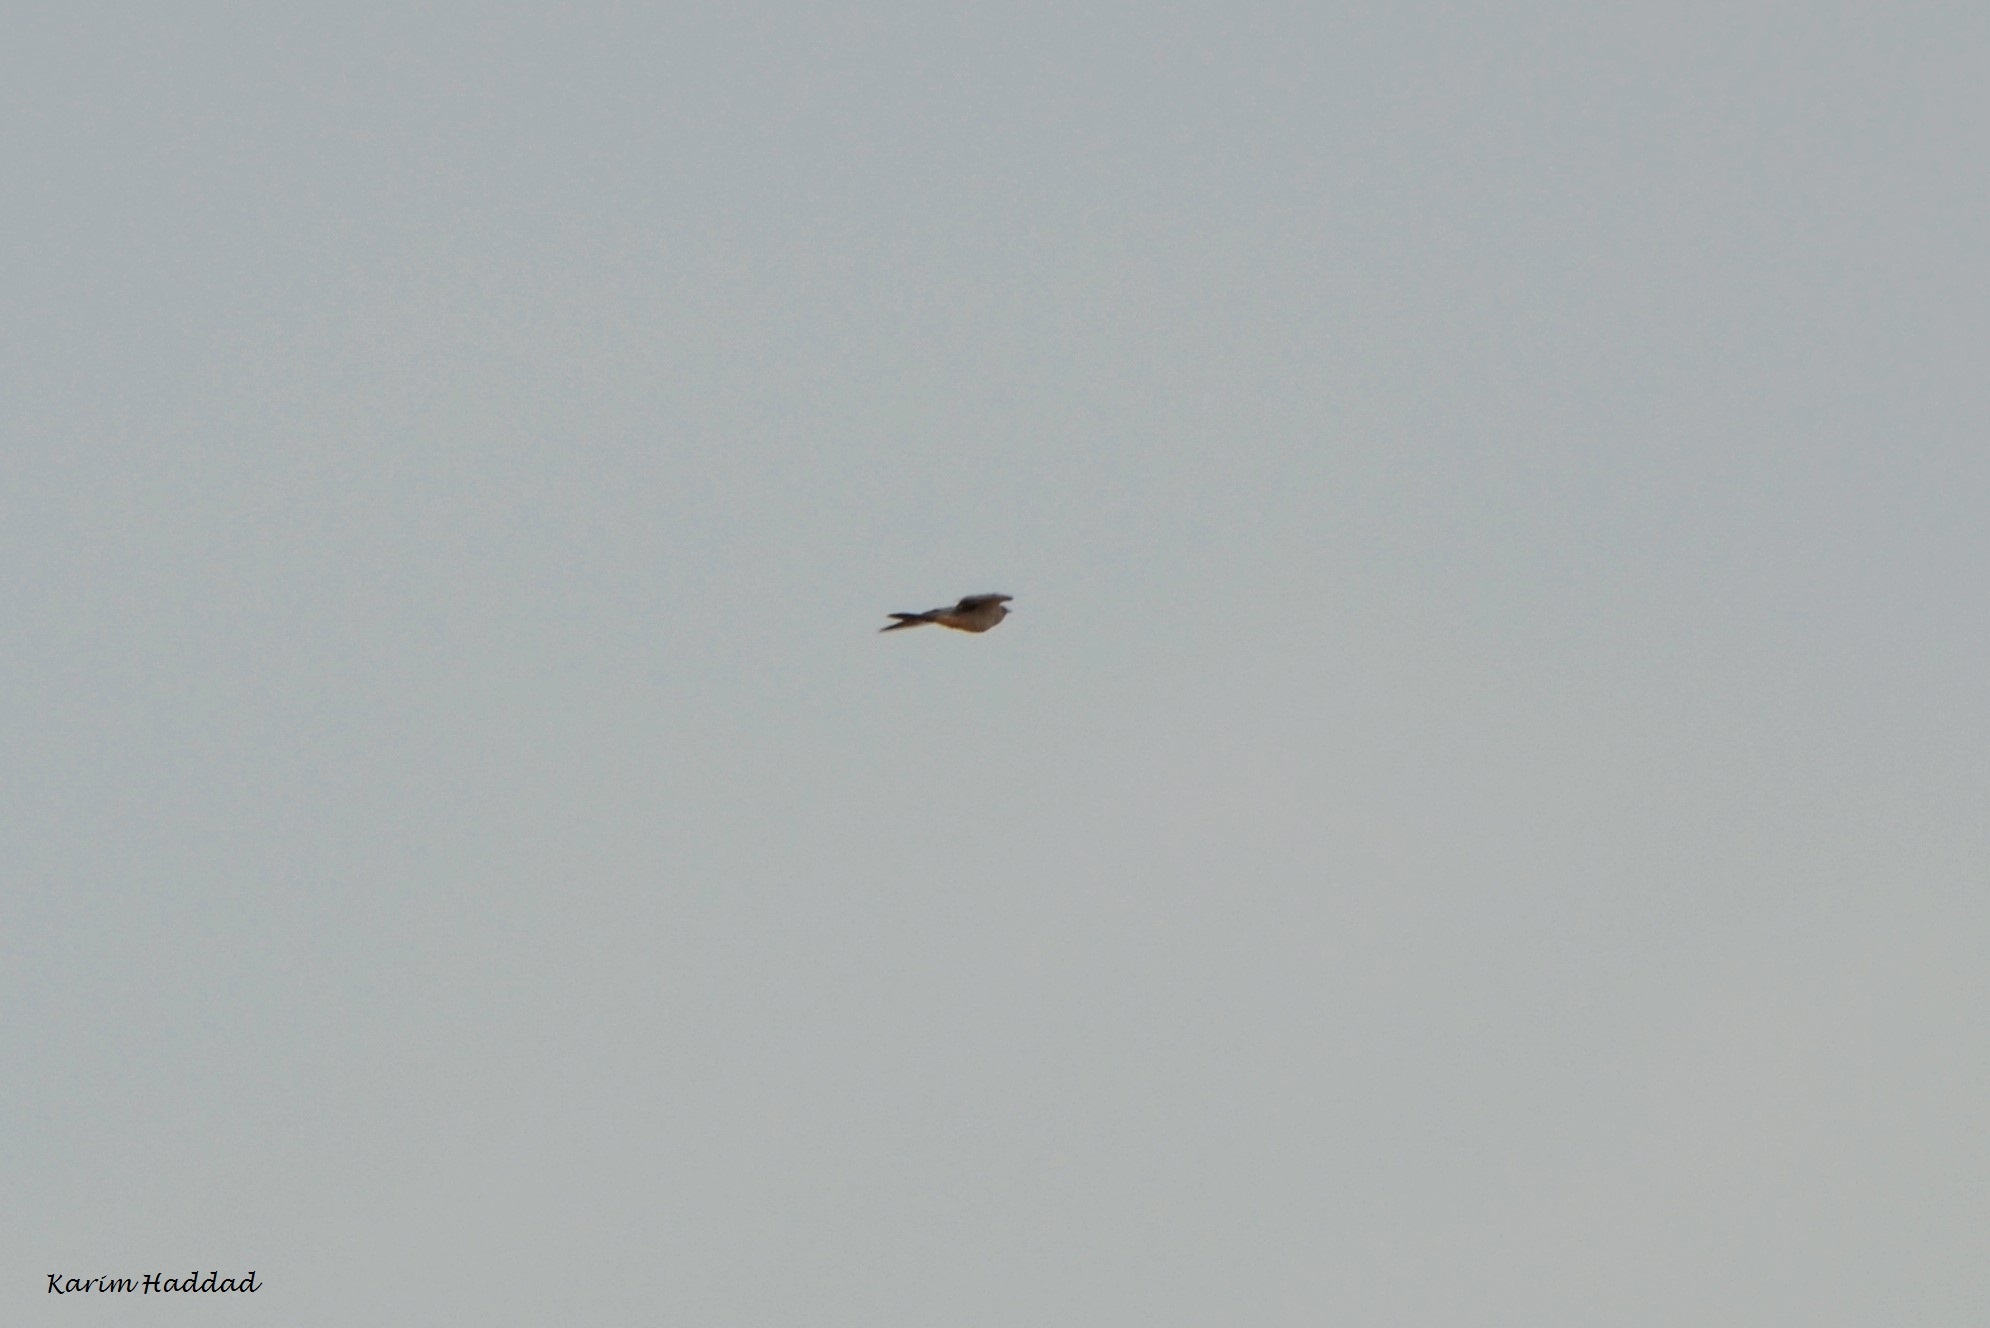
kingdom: Animalia
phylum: Chordata
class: Aves
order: Cuculiformes
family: Cuculidae
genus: Cuculus
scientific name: Cuculus canorus
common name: Common cuckoo
